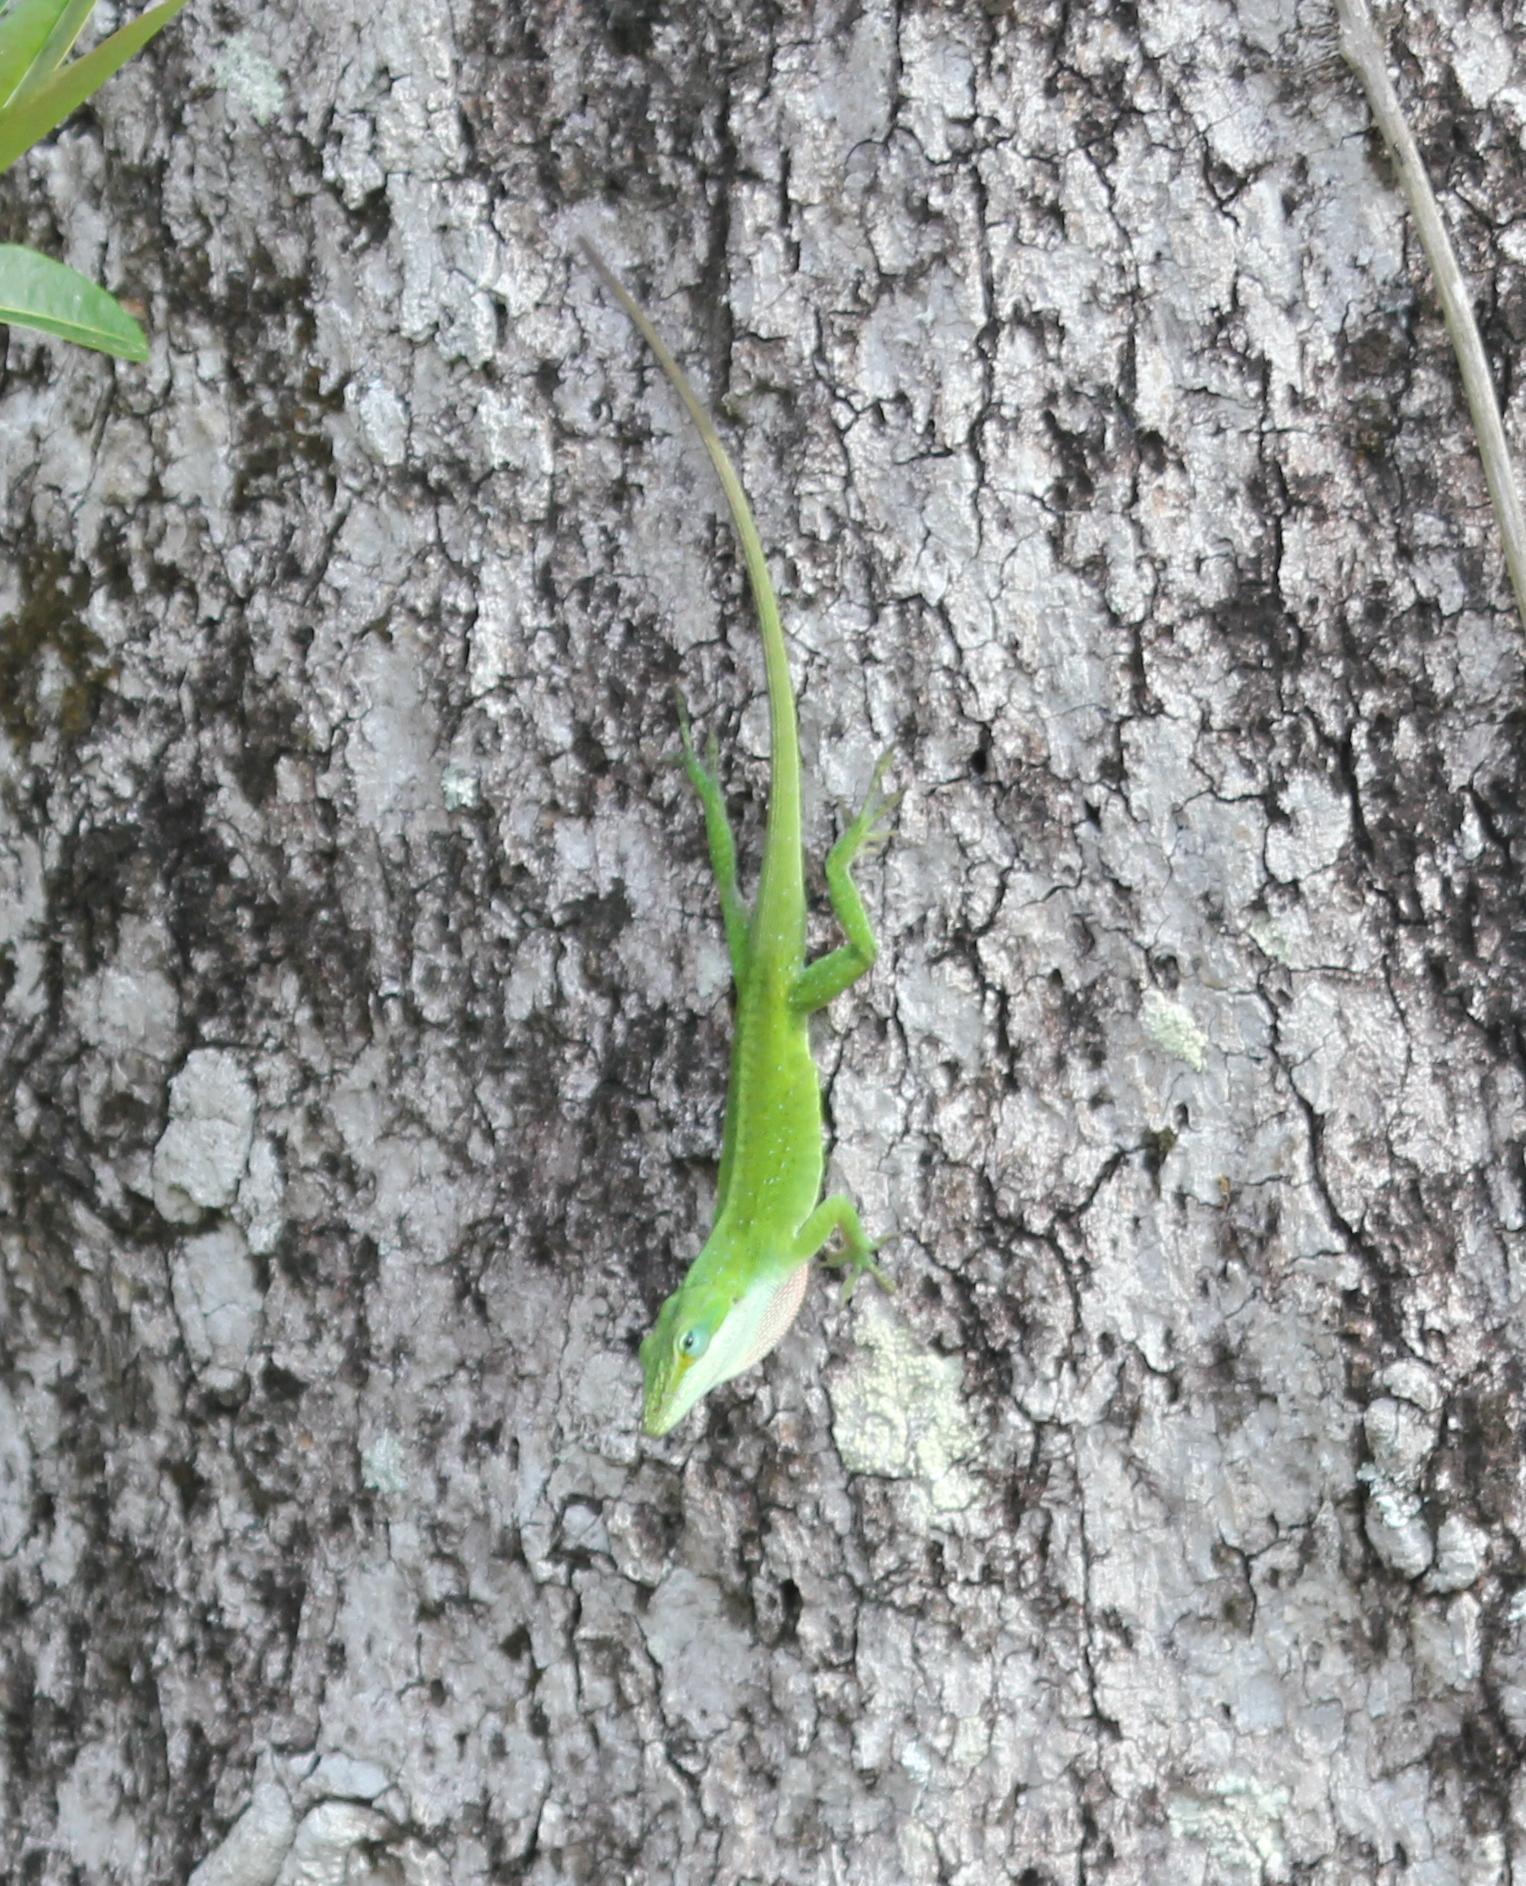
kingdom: Animalia
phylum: Chordata
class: Squamata
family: Dactyloidae
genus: Anolis
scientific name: Anolis carolinensis
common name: Green anole
